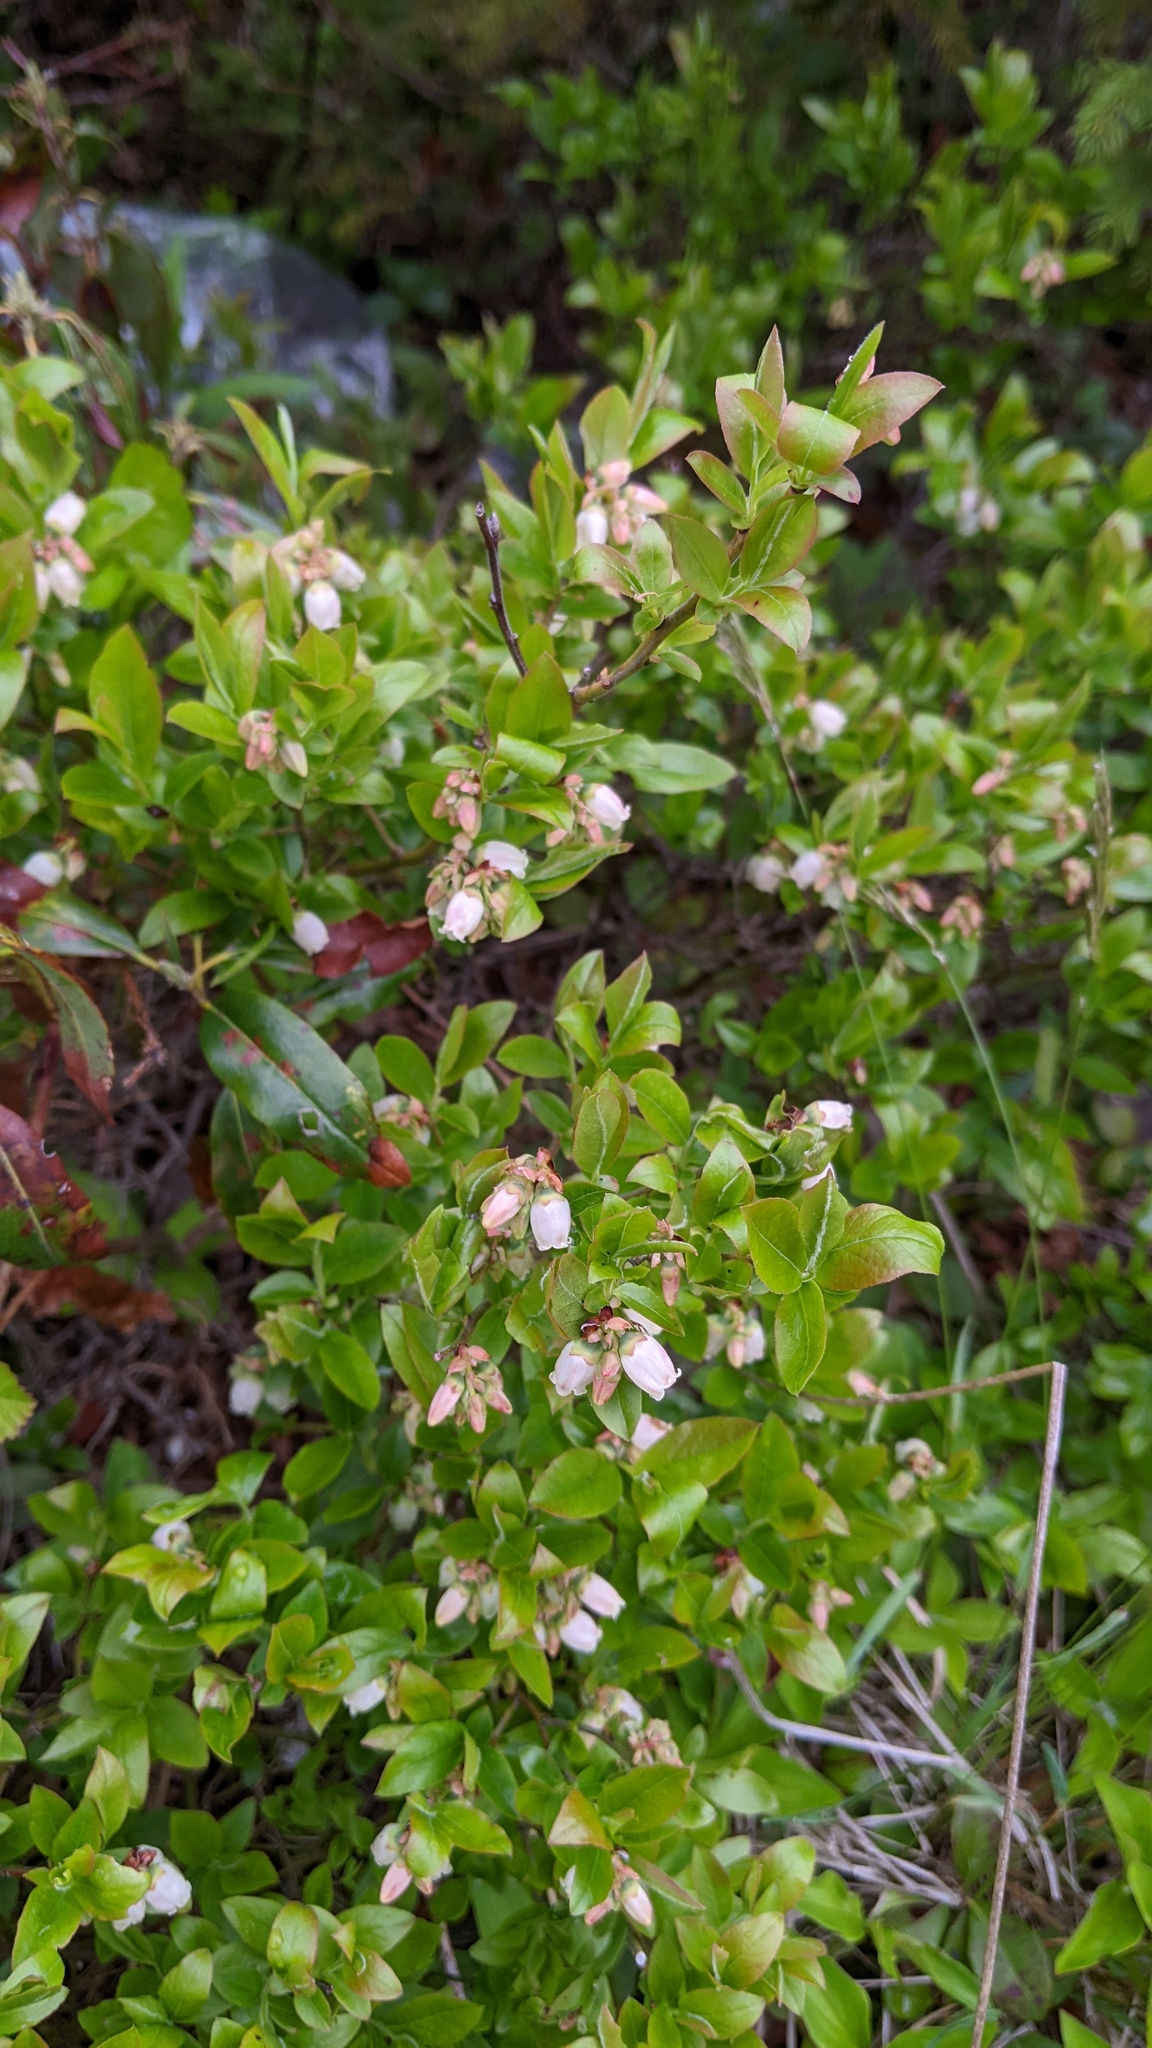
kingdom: Plantae
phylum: Tracheophyta
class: Magnoliopsida
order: Ericales
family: Ericaceae
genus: Vaccinium
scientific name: Vaccinium angustifolium
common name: Early lowbush blueberry
